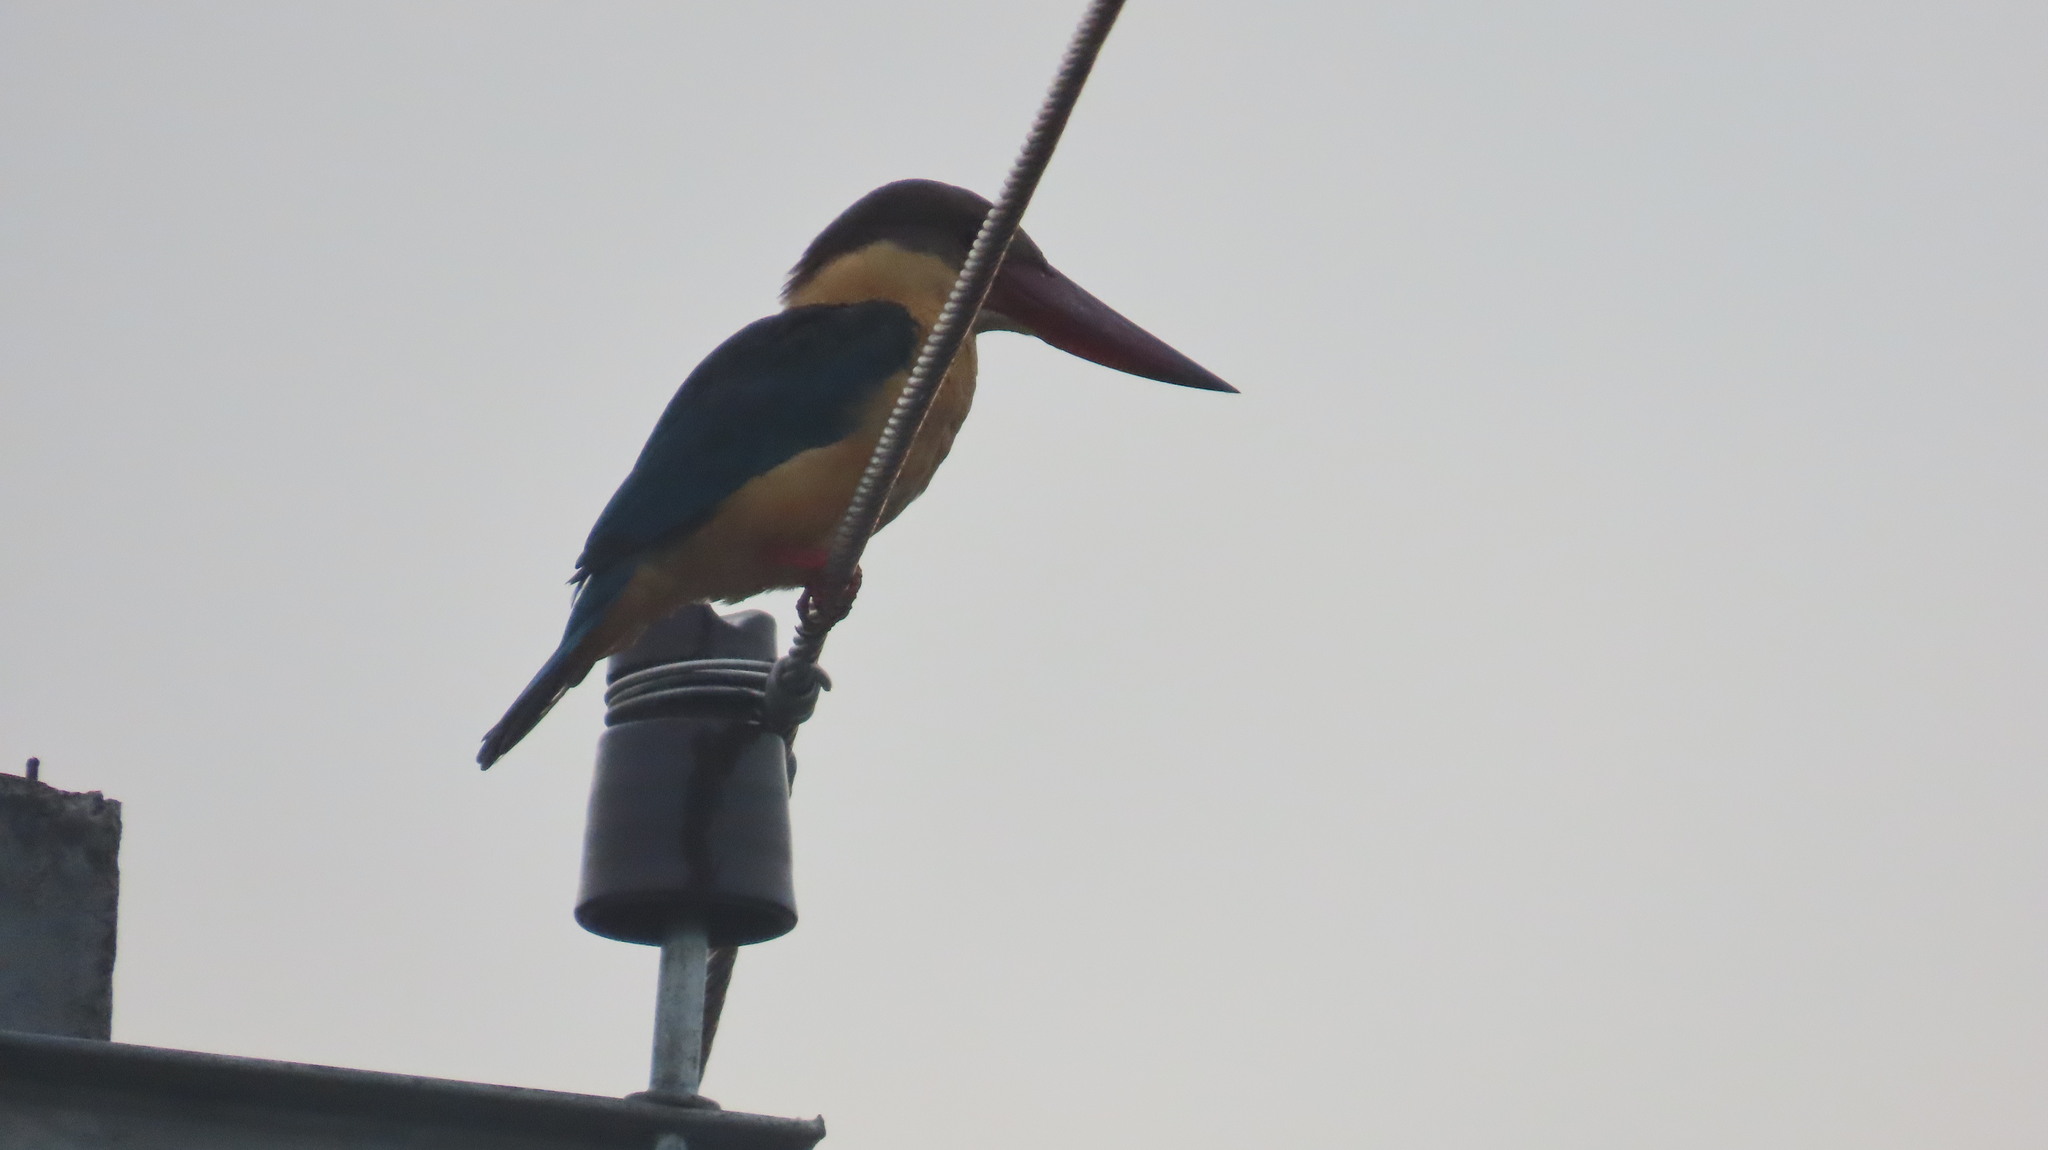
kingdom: Animalia
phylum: Chordata
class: Aves
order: Coraciiformes
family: Alcedinidae
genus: Pelargopsis
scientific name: Pelargopsis capensis
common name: Stork-billed kingfisher
